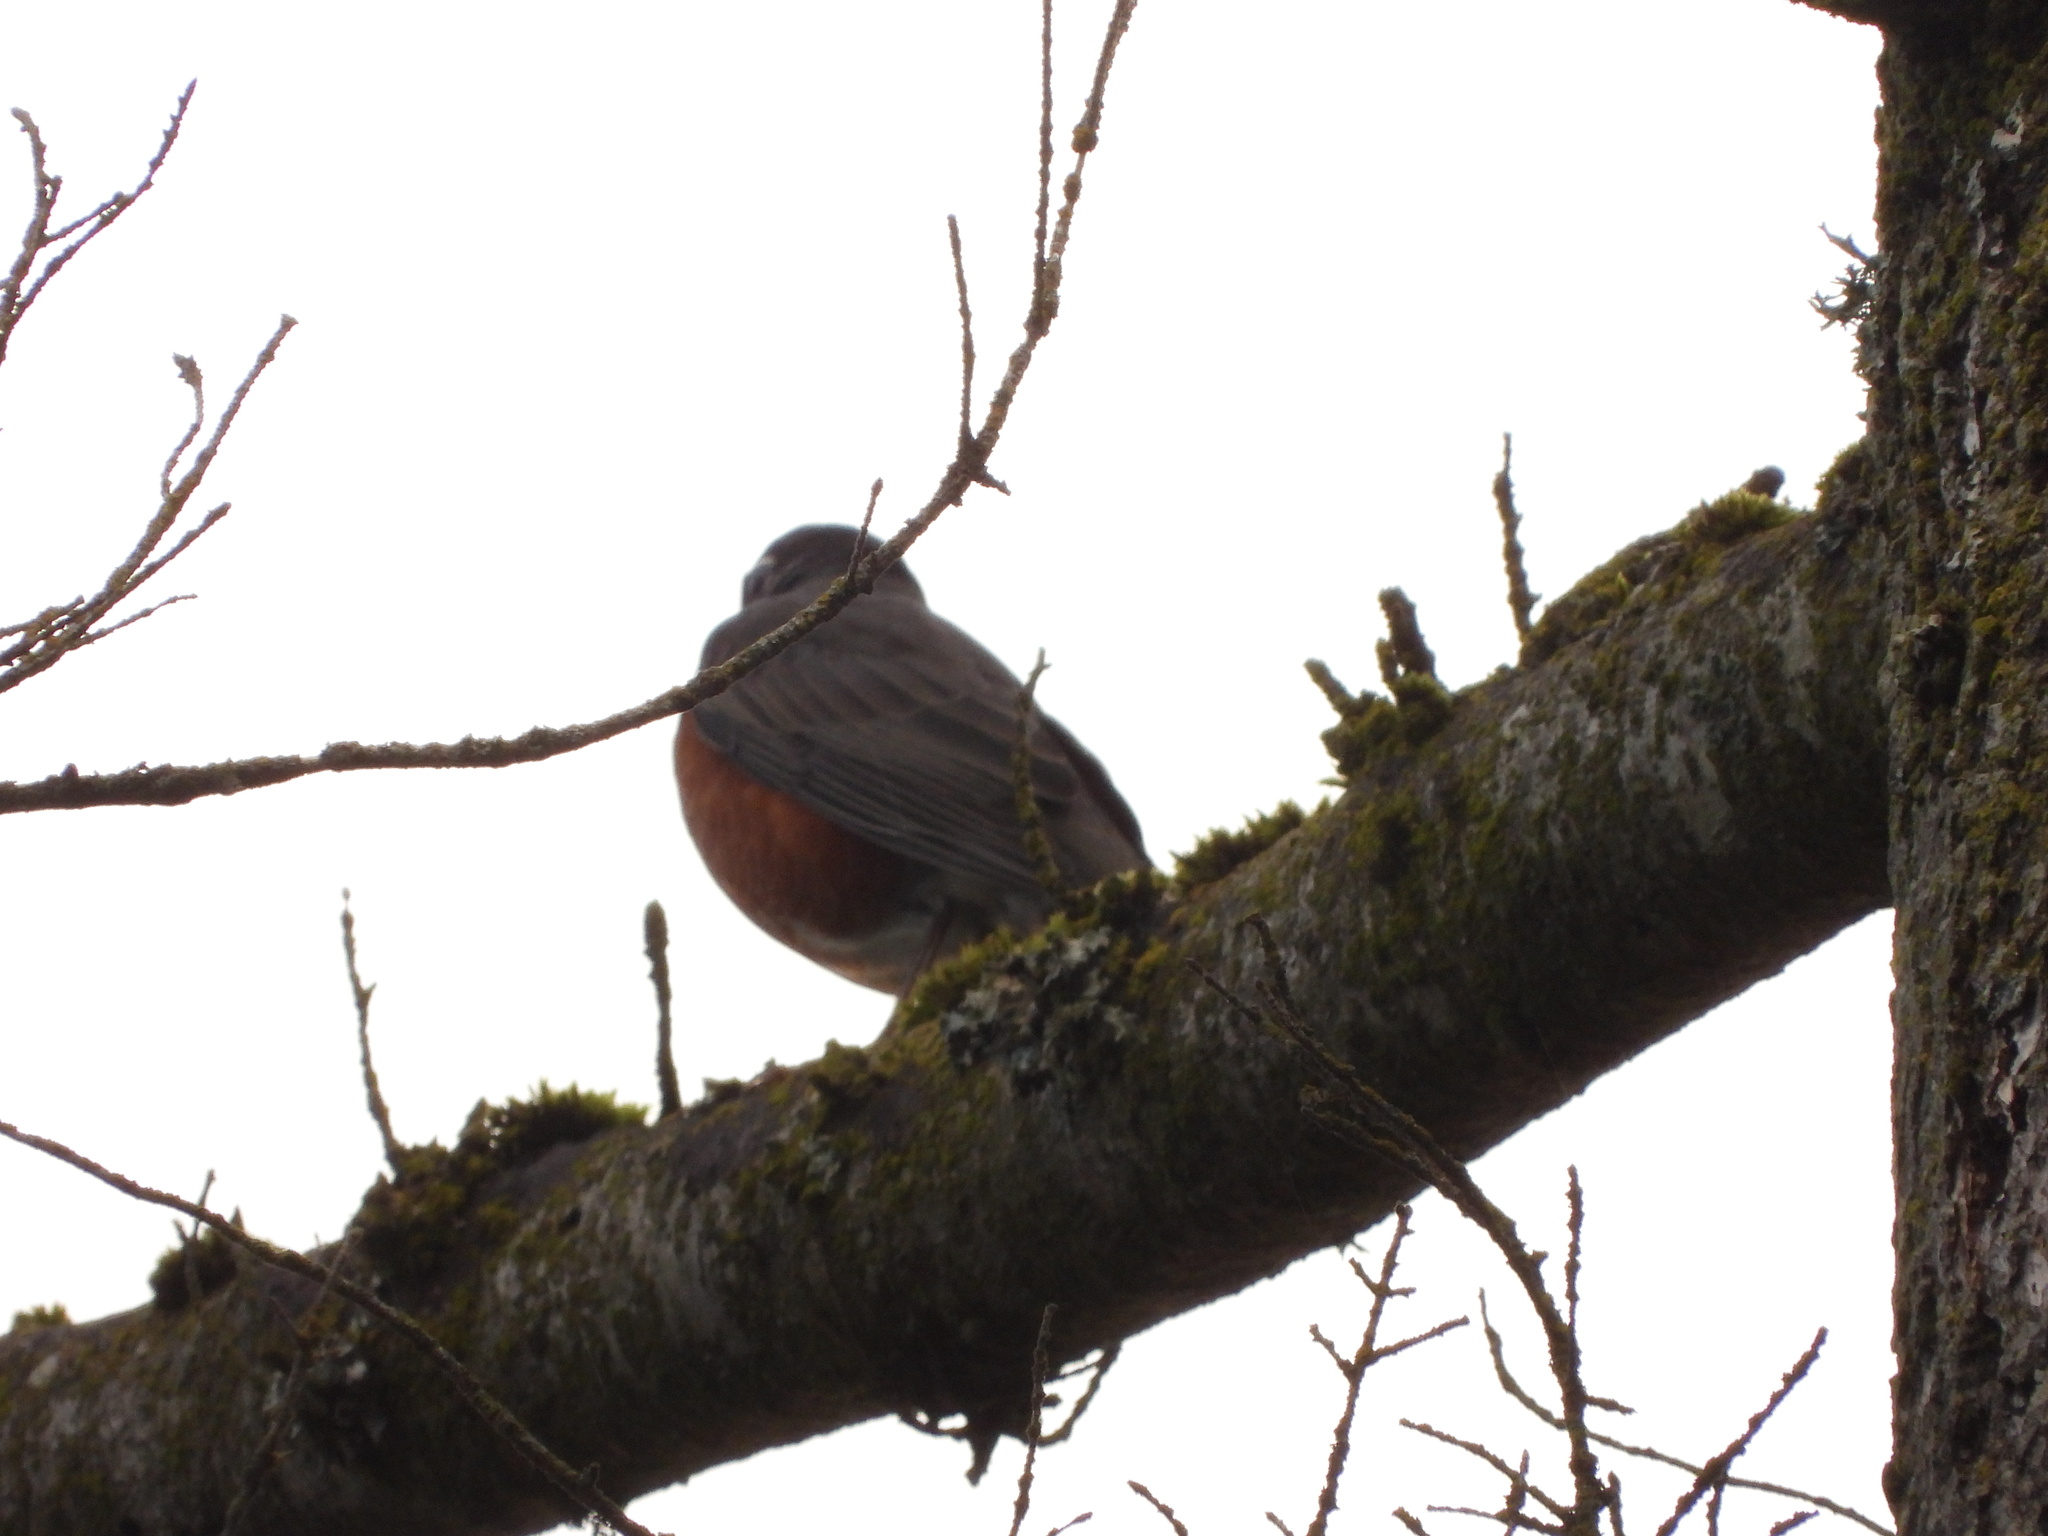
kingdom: Animalia
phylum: Chordata
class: Aves
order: Passeriformes
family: Turdidae
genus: Turdus
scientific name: Turdus migratorius
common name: American robin
